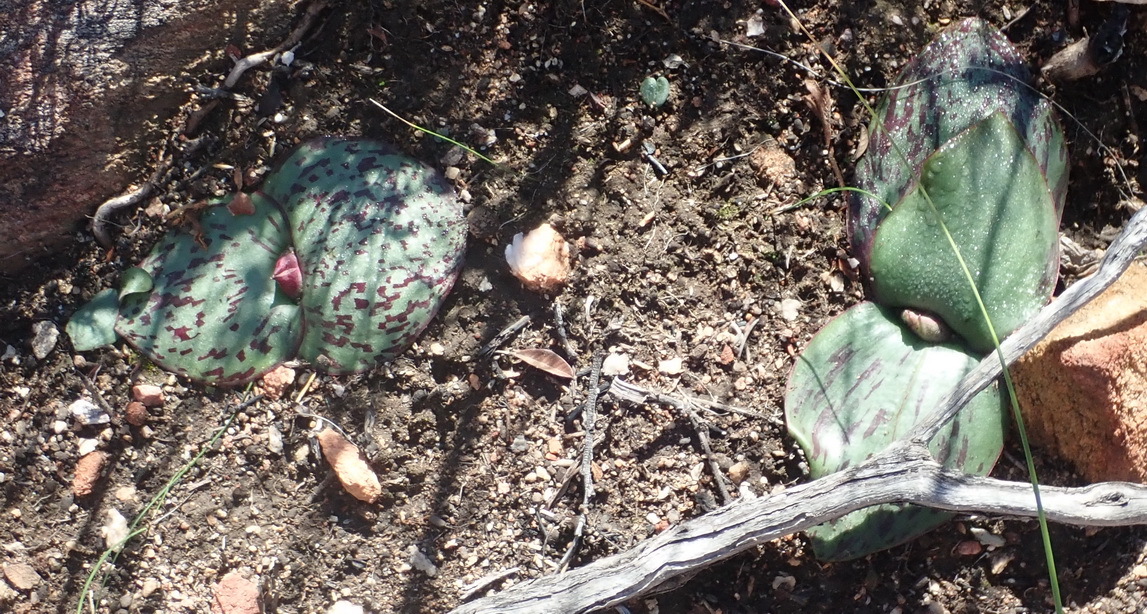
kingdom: Plantae
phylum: Tracheophyta
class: Liliopsida
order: Asparagales
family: Asparagaceae
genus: Massonia
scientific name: Massonia depressa
